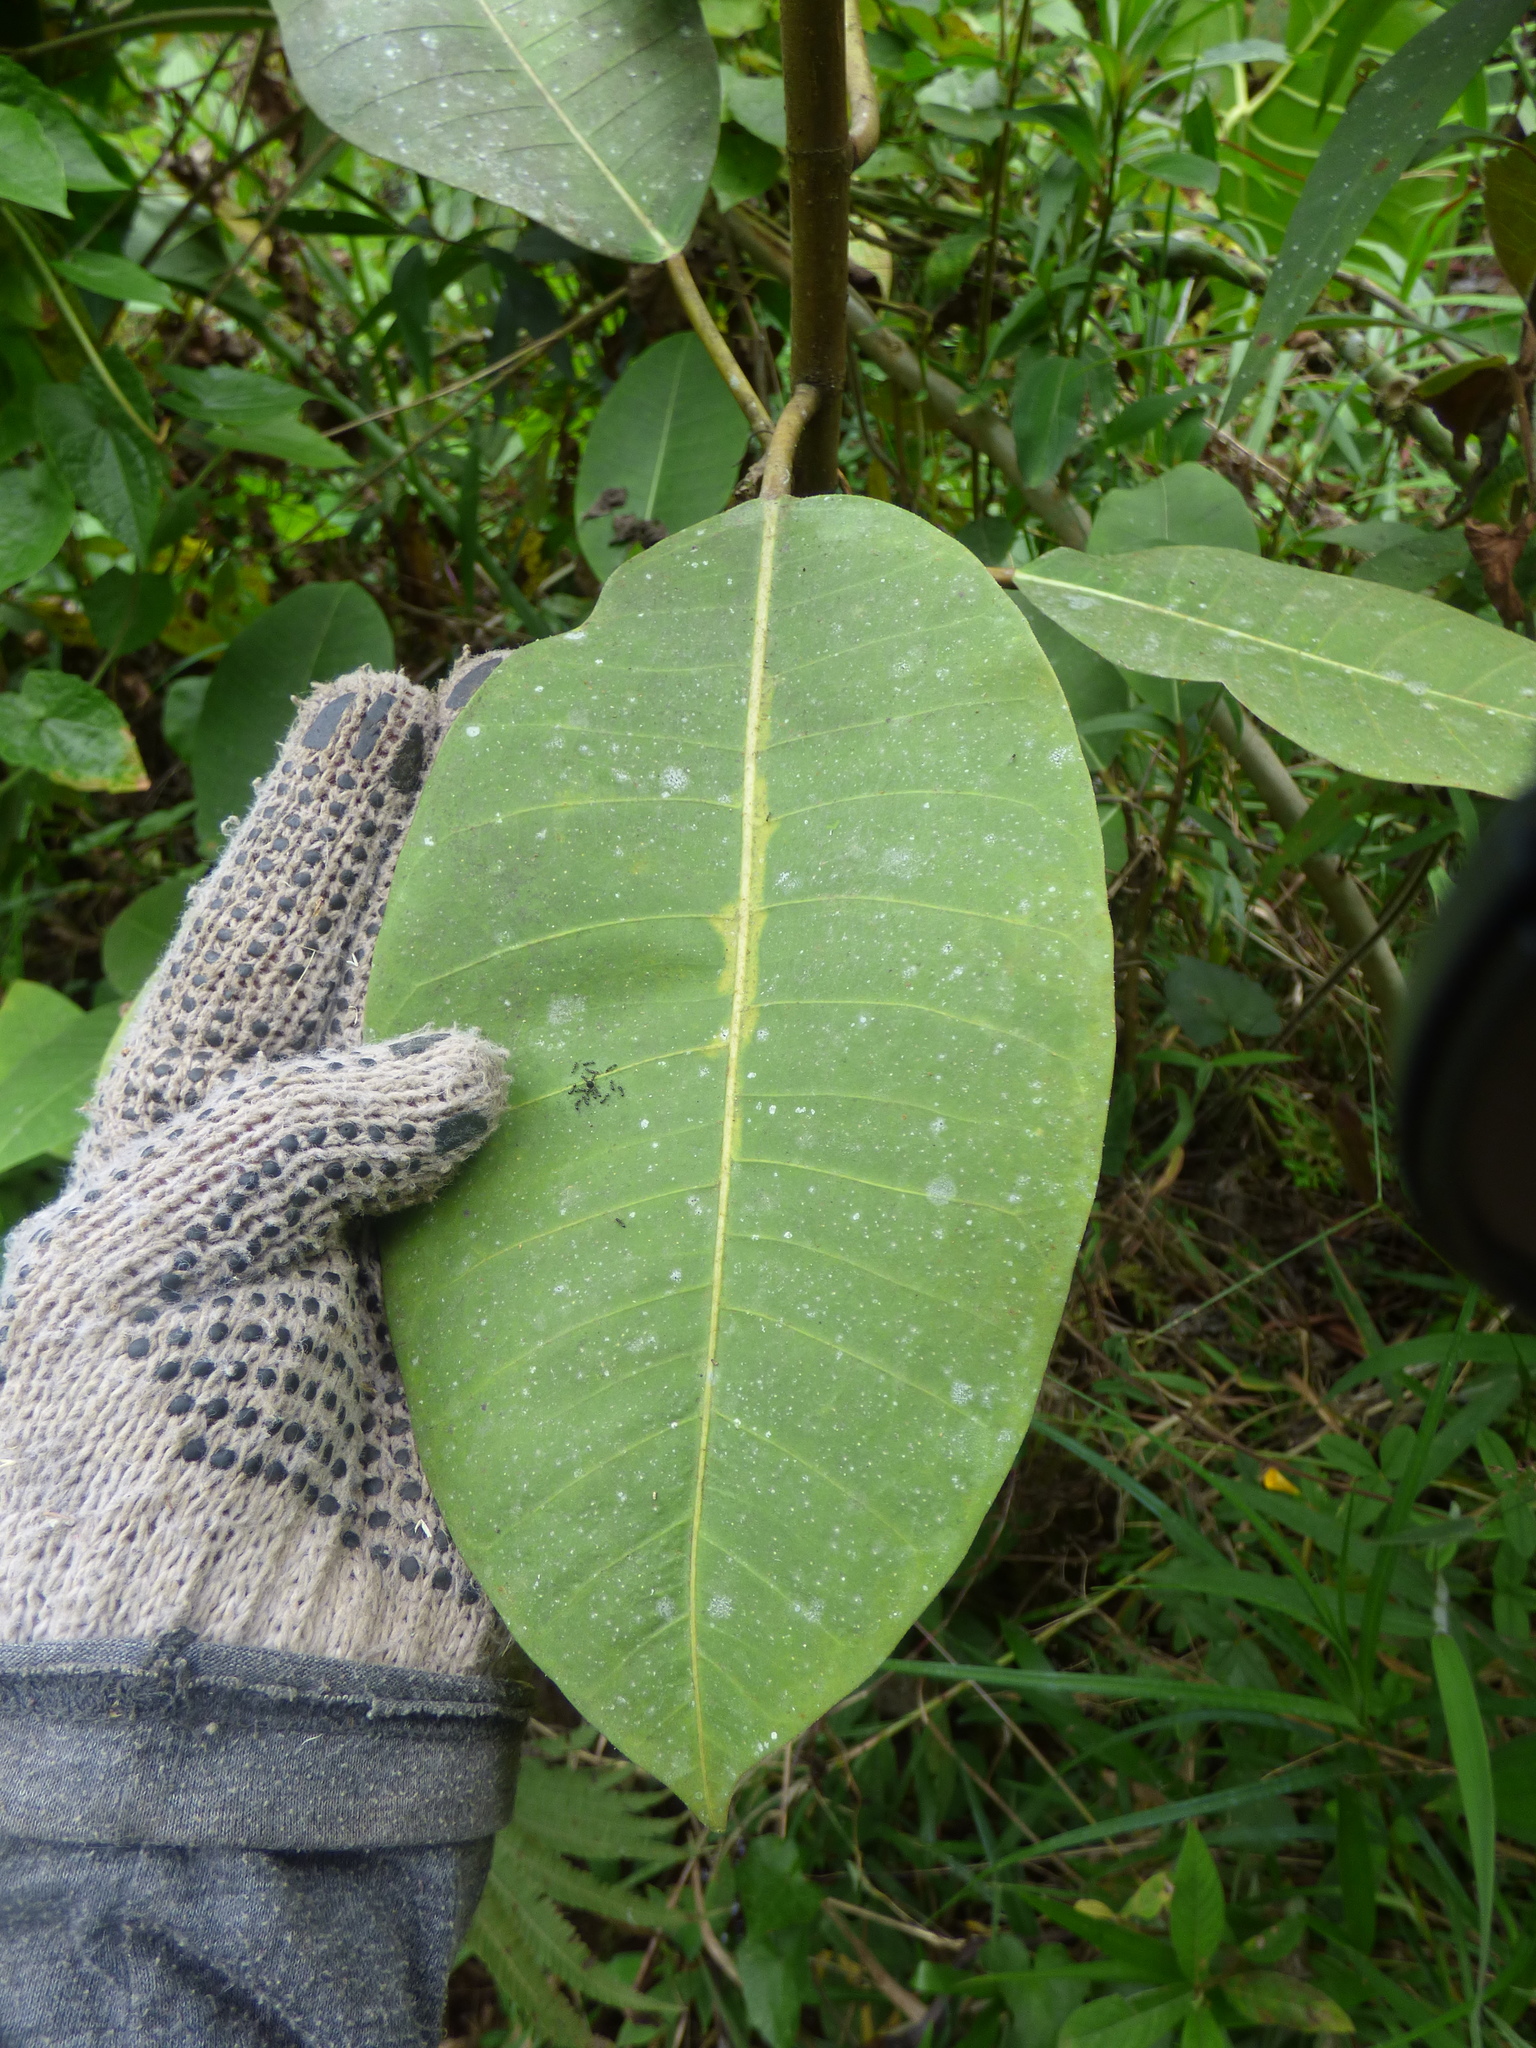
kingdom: Plantae
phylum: Tracheophyta
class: Magnoliopsida
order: Rosales
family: Moraceae
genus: Ficus
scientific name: Ficus tonduzii
